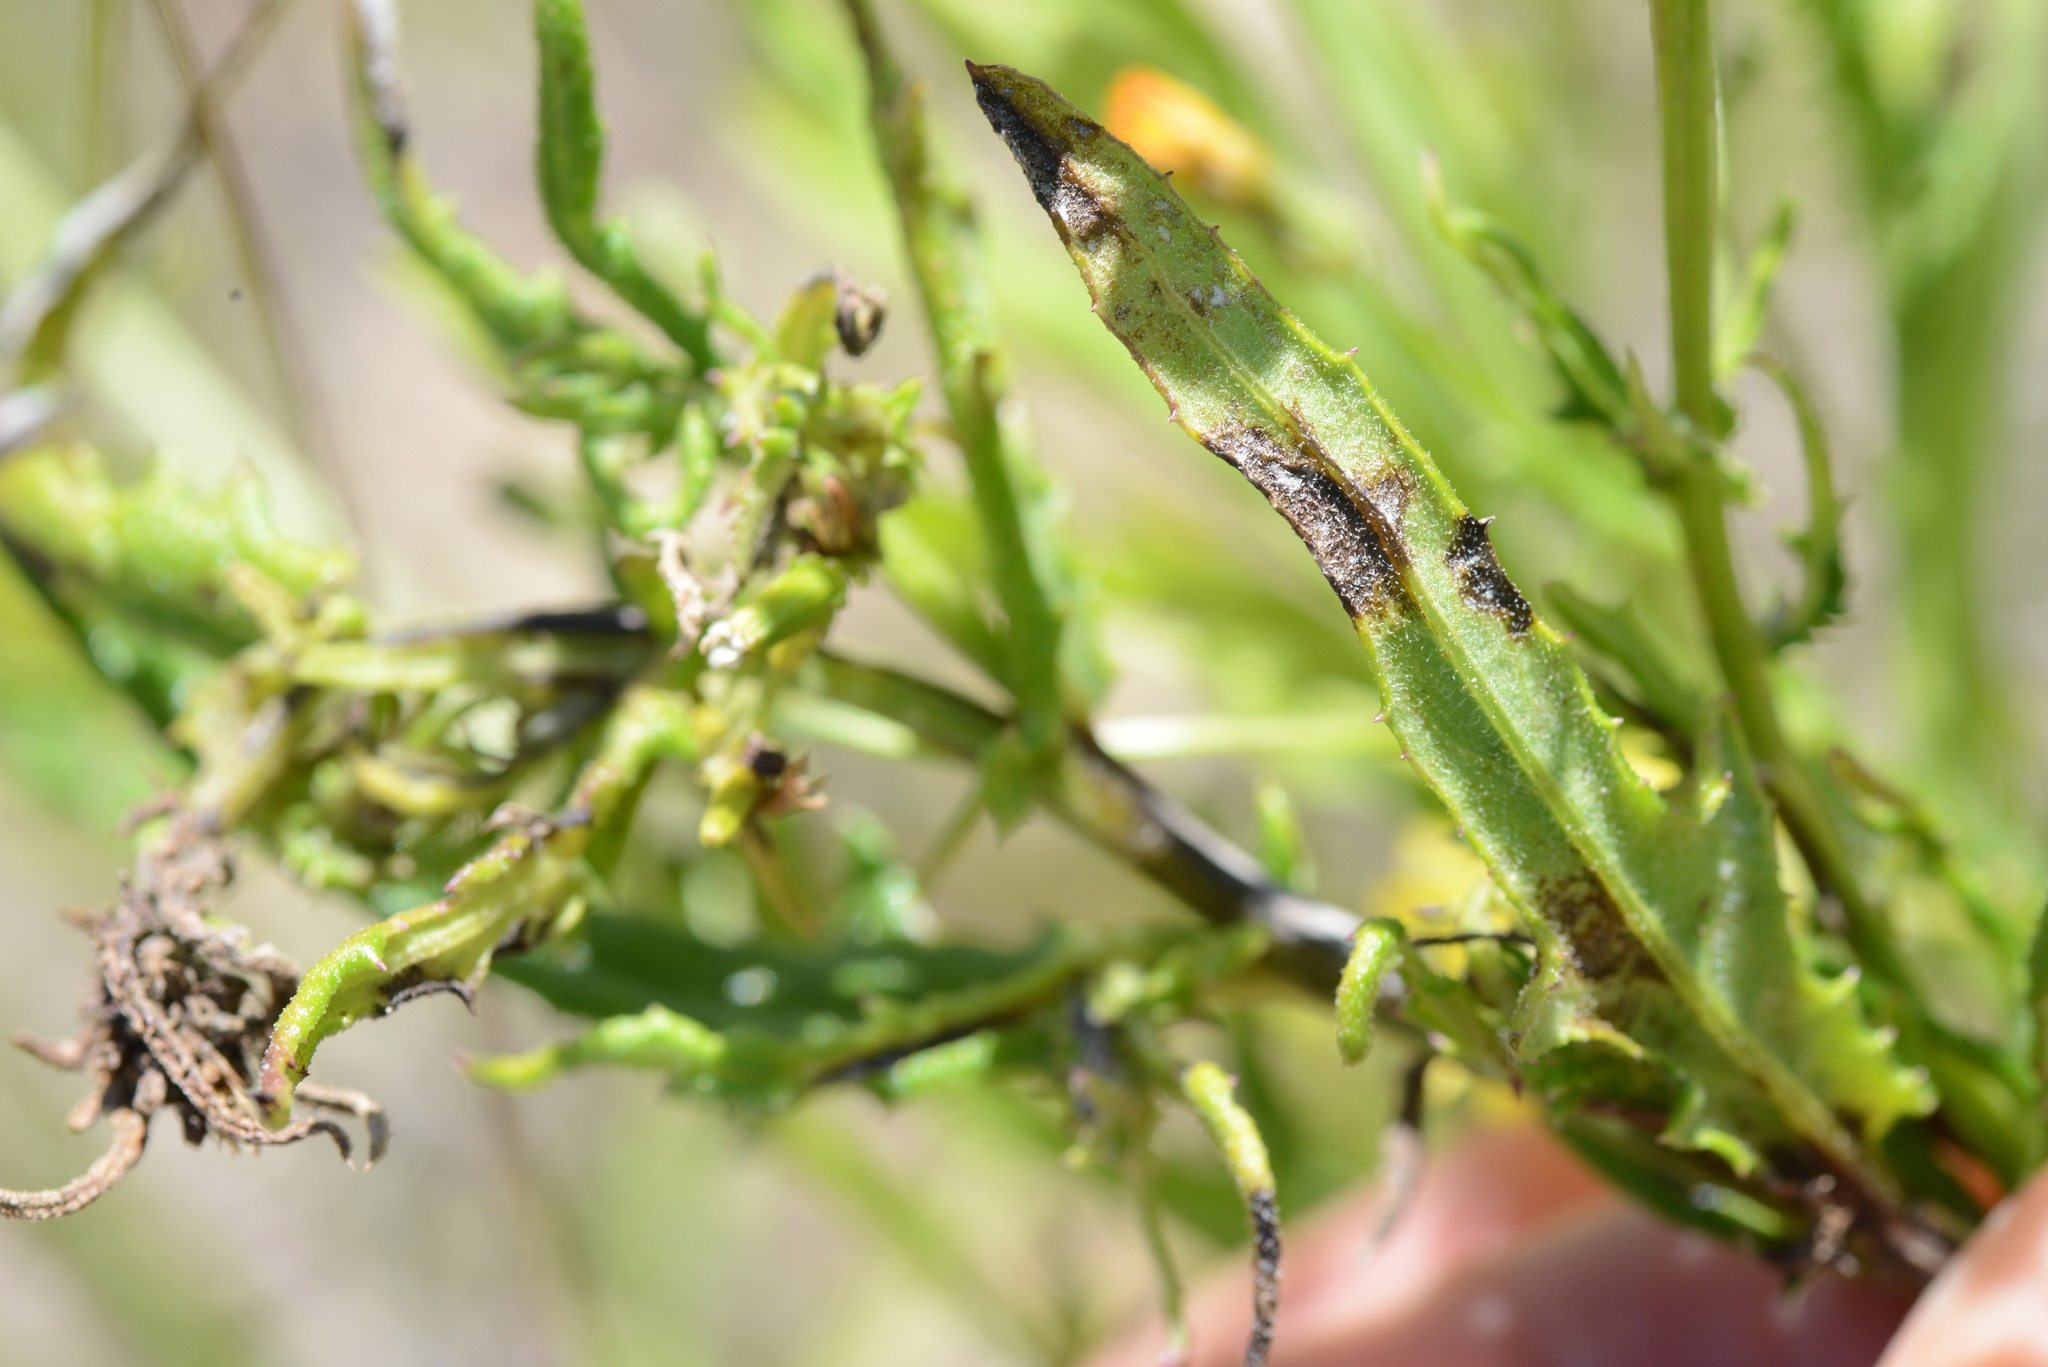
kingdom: Plantae
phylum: Tracheophyta
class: Magnoliopsida
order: Asterales
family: Asteraceae
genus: Senecio
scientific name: Senecio hispidulus
